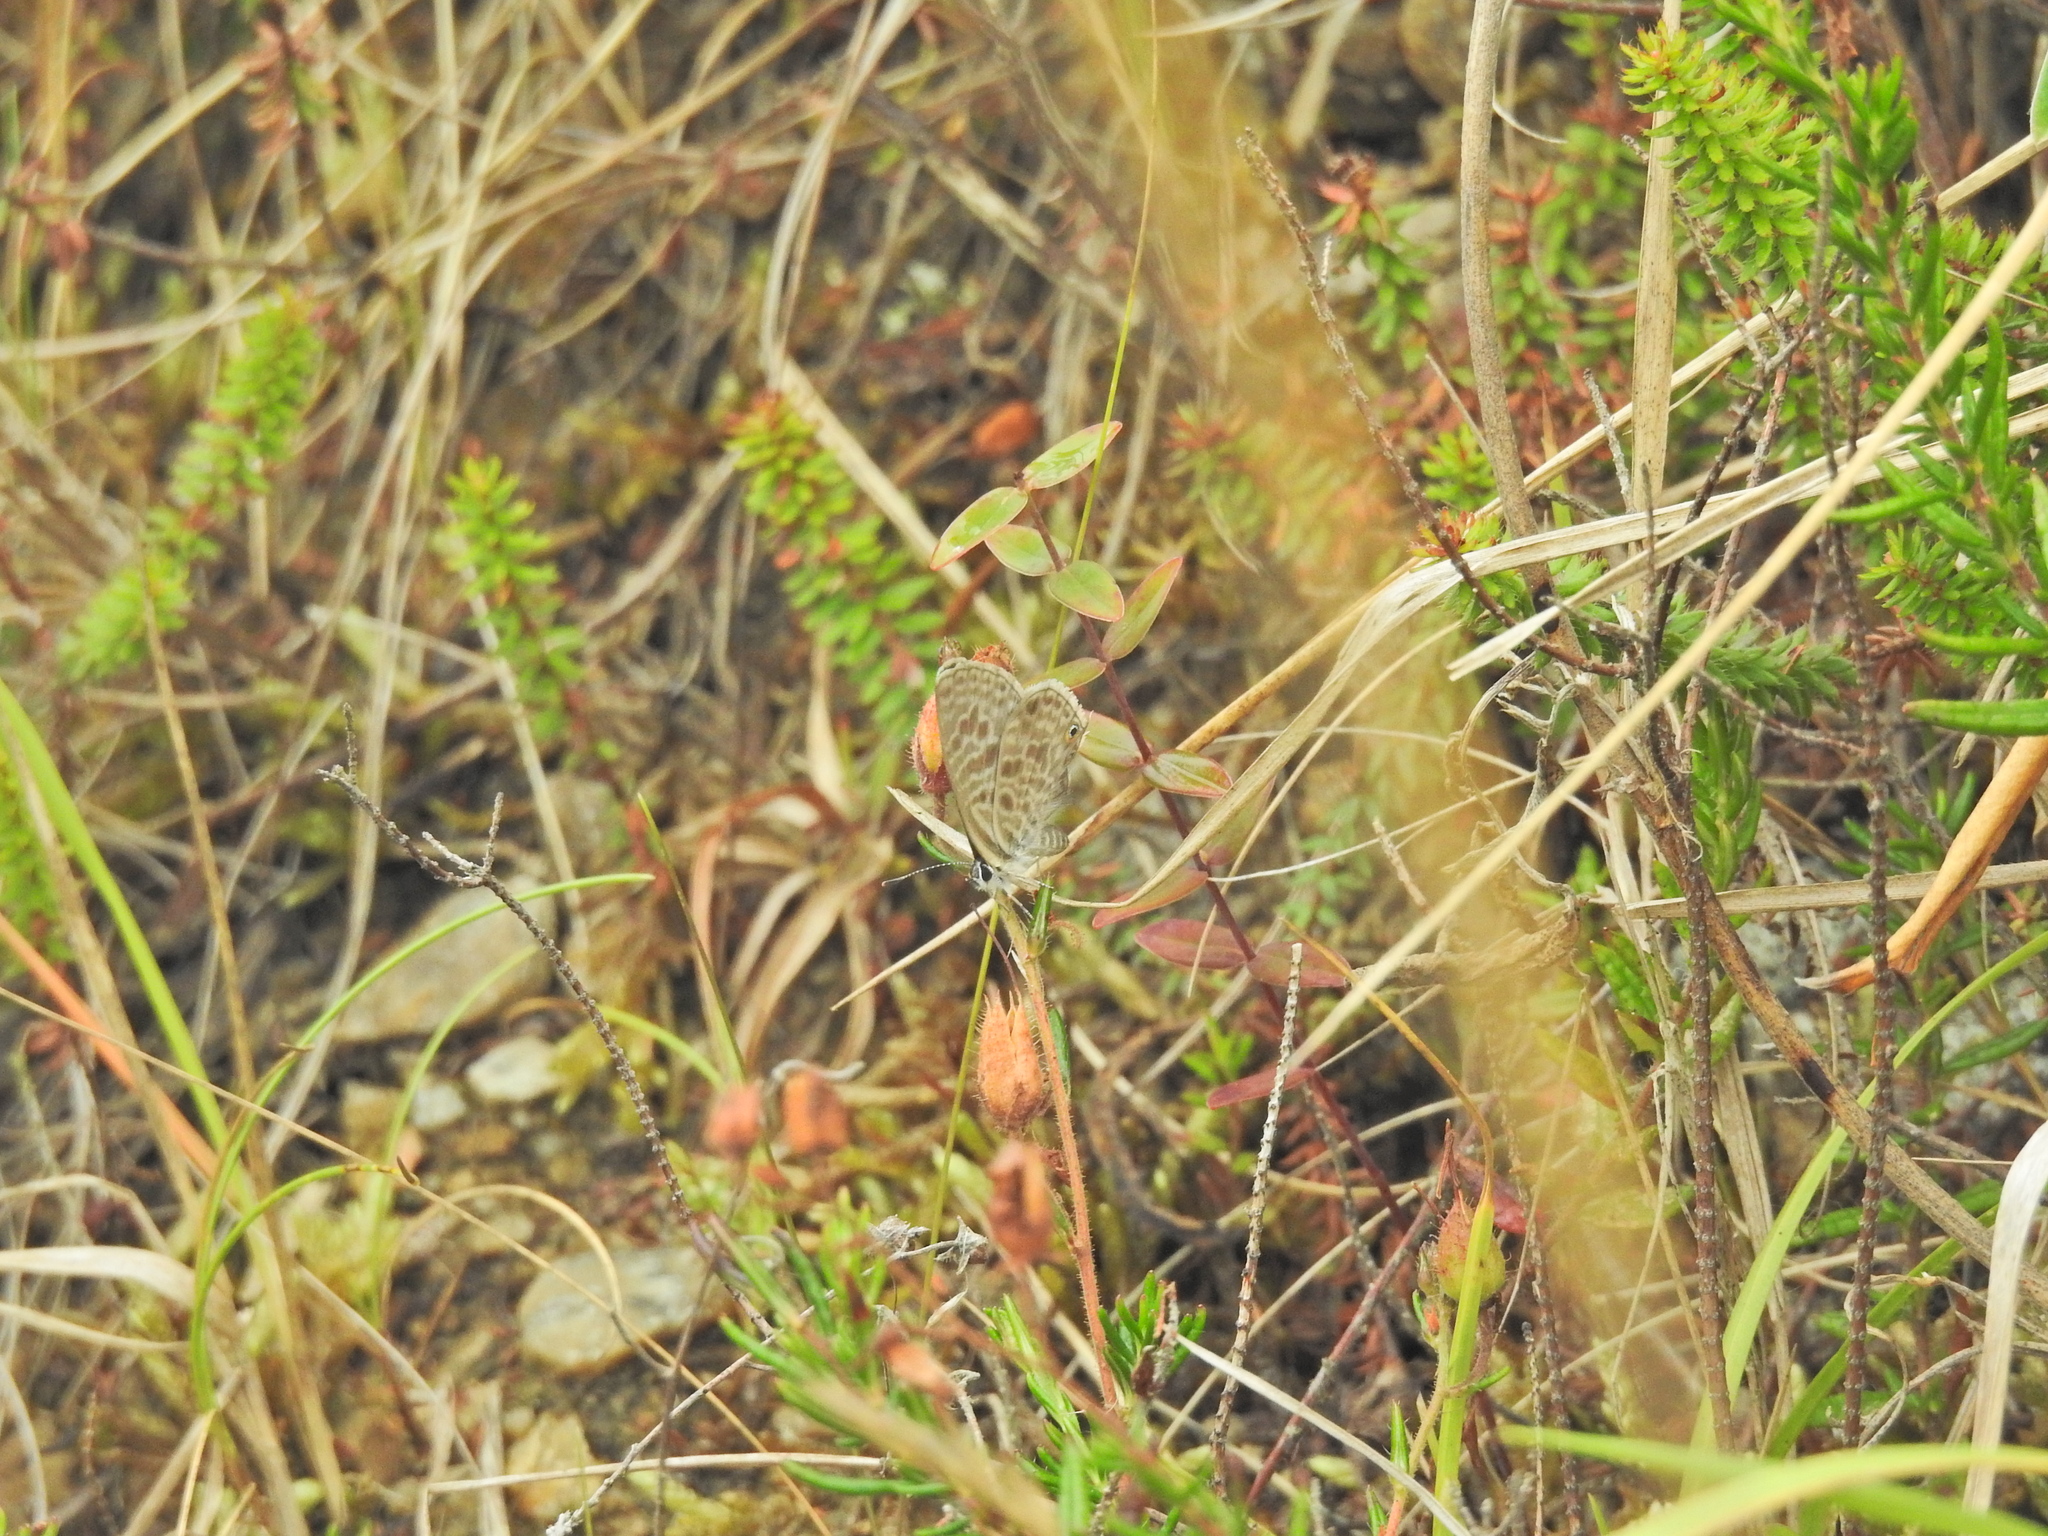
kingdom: Animalia
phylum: Arthropoda
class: Insecta
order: Lepidoptera
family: Lycaenidae
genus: Leptotes
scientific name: Leptotes pirithous
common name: Lang's short-tailed blue
